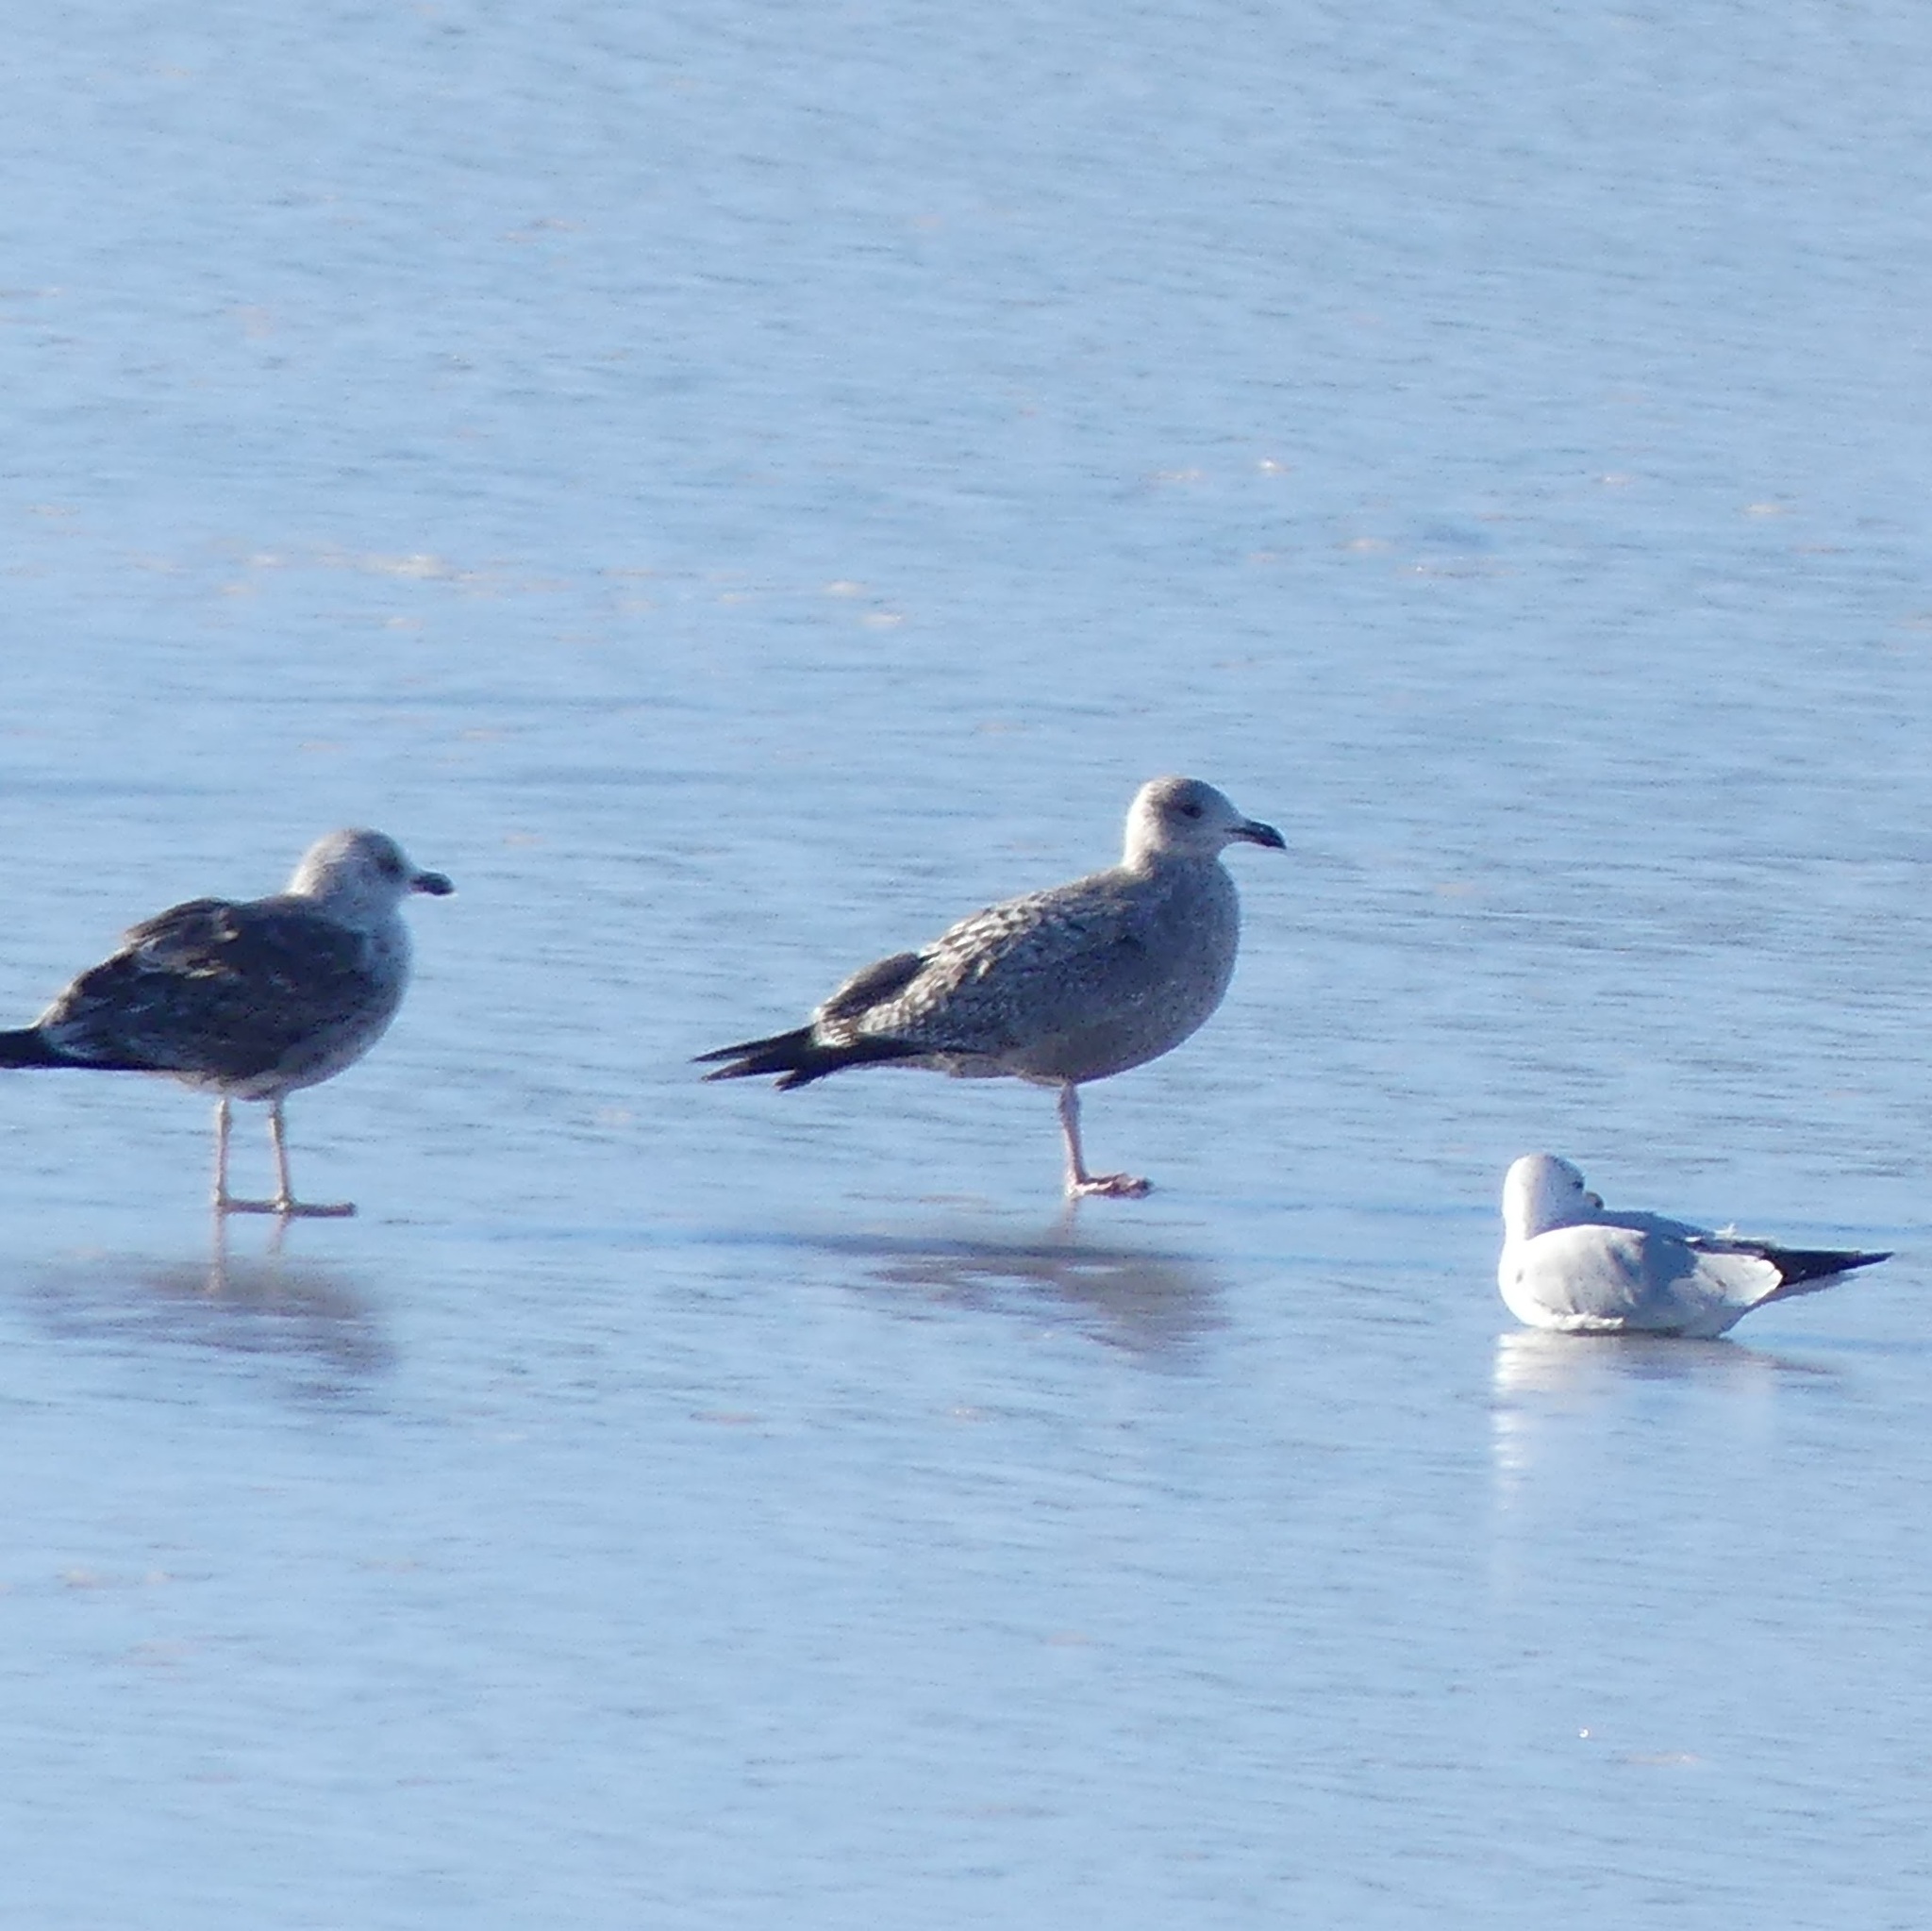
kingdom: Animalia
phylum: Chordata
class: Aves
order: Charadriiformes
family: Laridae
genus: Larus
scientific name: Larus argentatus
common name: Herring gull
